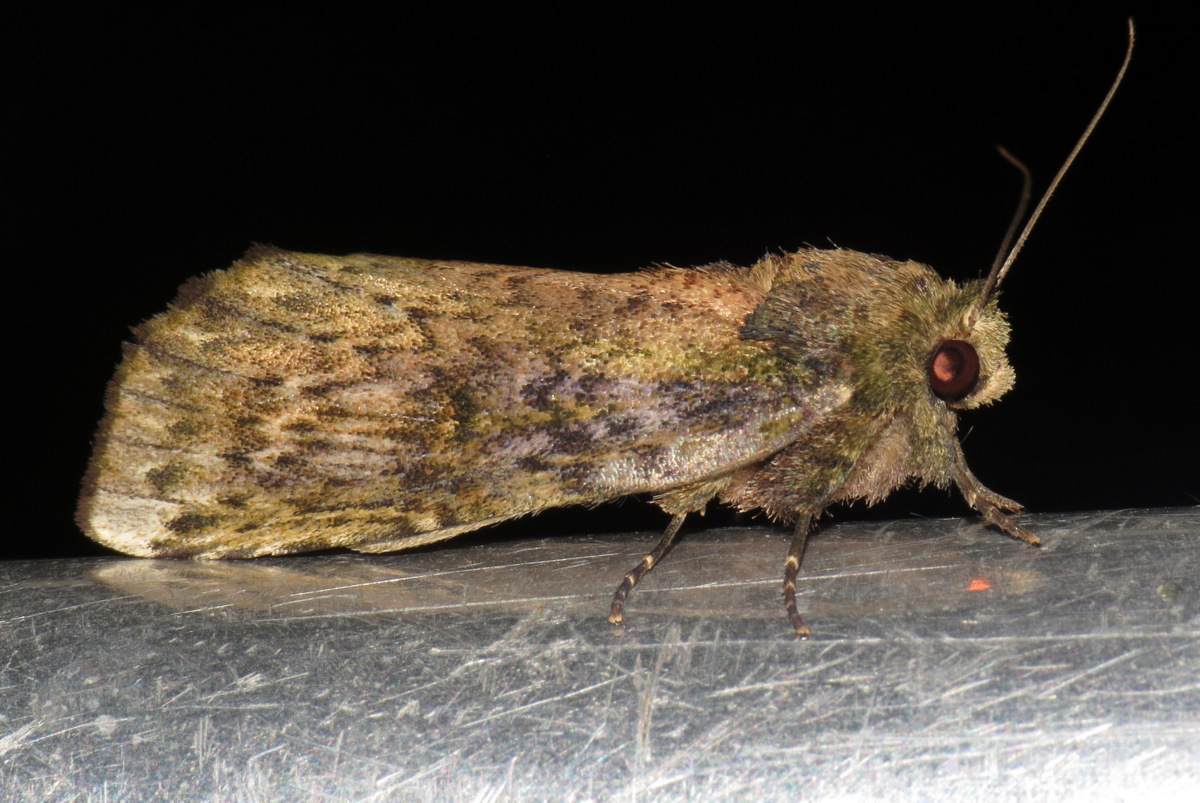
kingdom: Animalia
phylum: Arthropoda
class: Insecta
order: Lepidoptera
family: Notodontidae
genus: Dicentria
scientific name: Dicentria nondescripta
